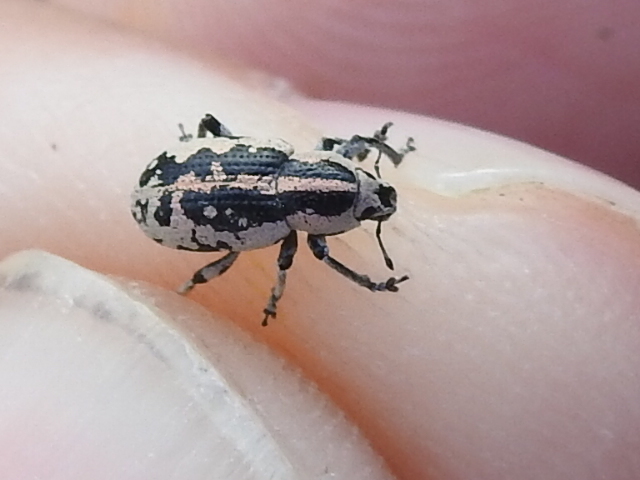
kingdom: Animalia
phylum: Arthropoda
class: Insecta
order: Coleoptera
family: Curculionidae
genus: Eudiagogus
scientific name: Eudiagogus rosenschoeldi
